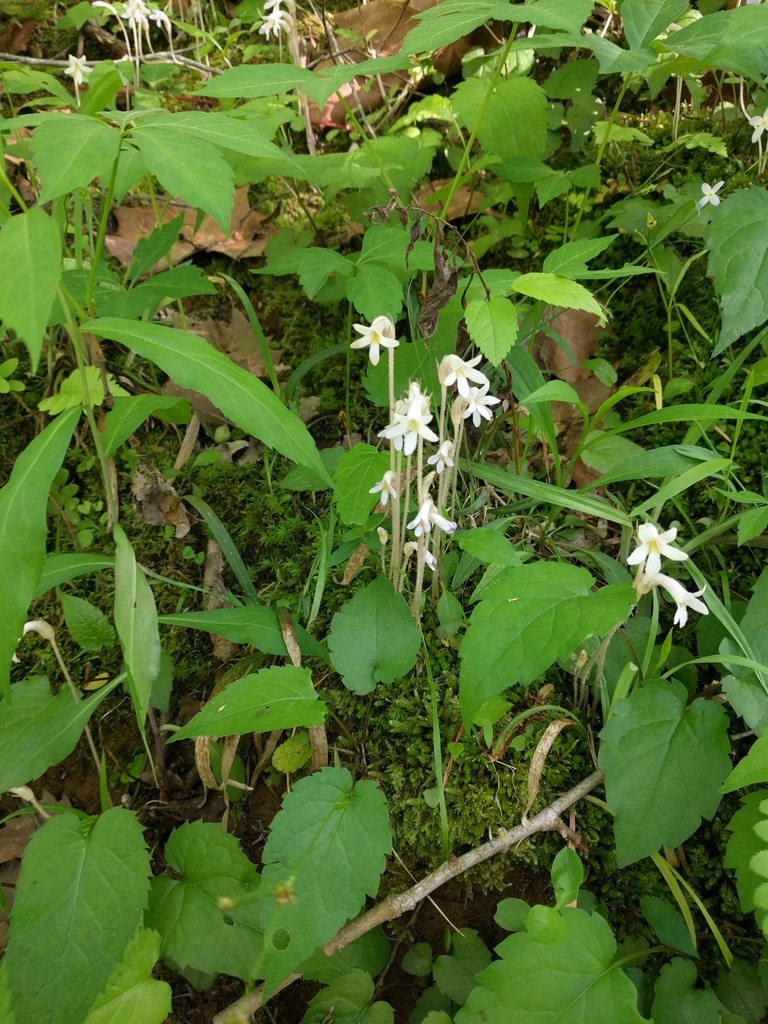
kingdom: Plantae
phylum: Tracheophyta
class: Magnoliopsida
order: Lamiales
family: Orobanchaceae
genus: Aphyllon
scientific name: Aphyllon uniflorum
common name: One-flowered broomrape
